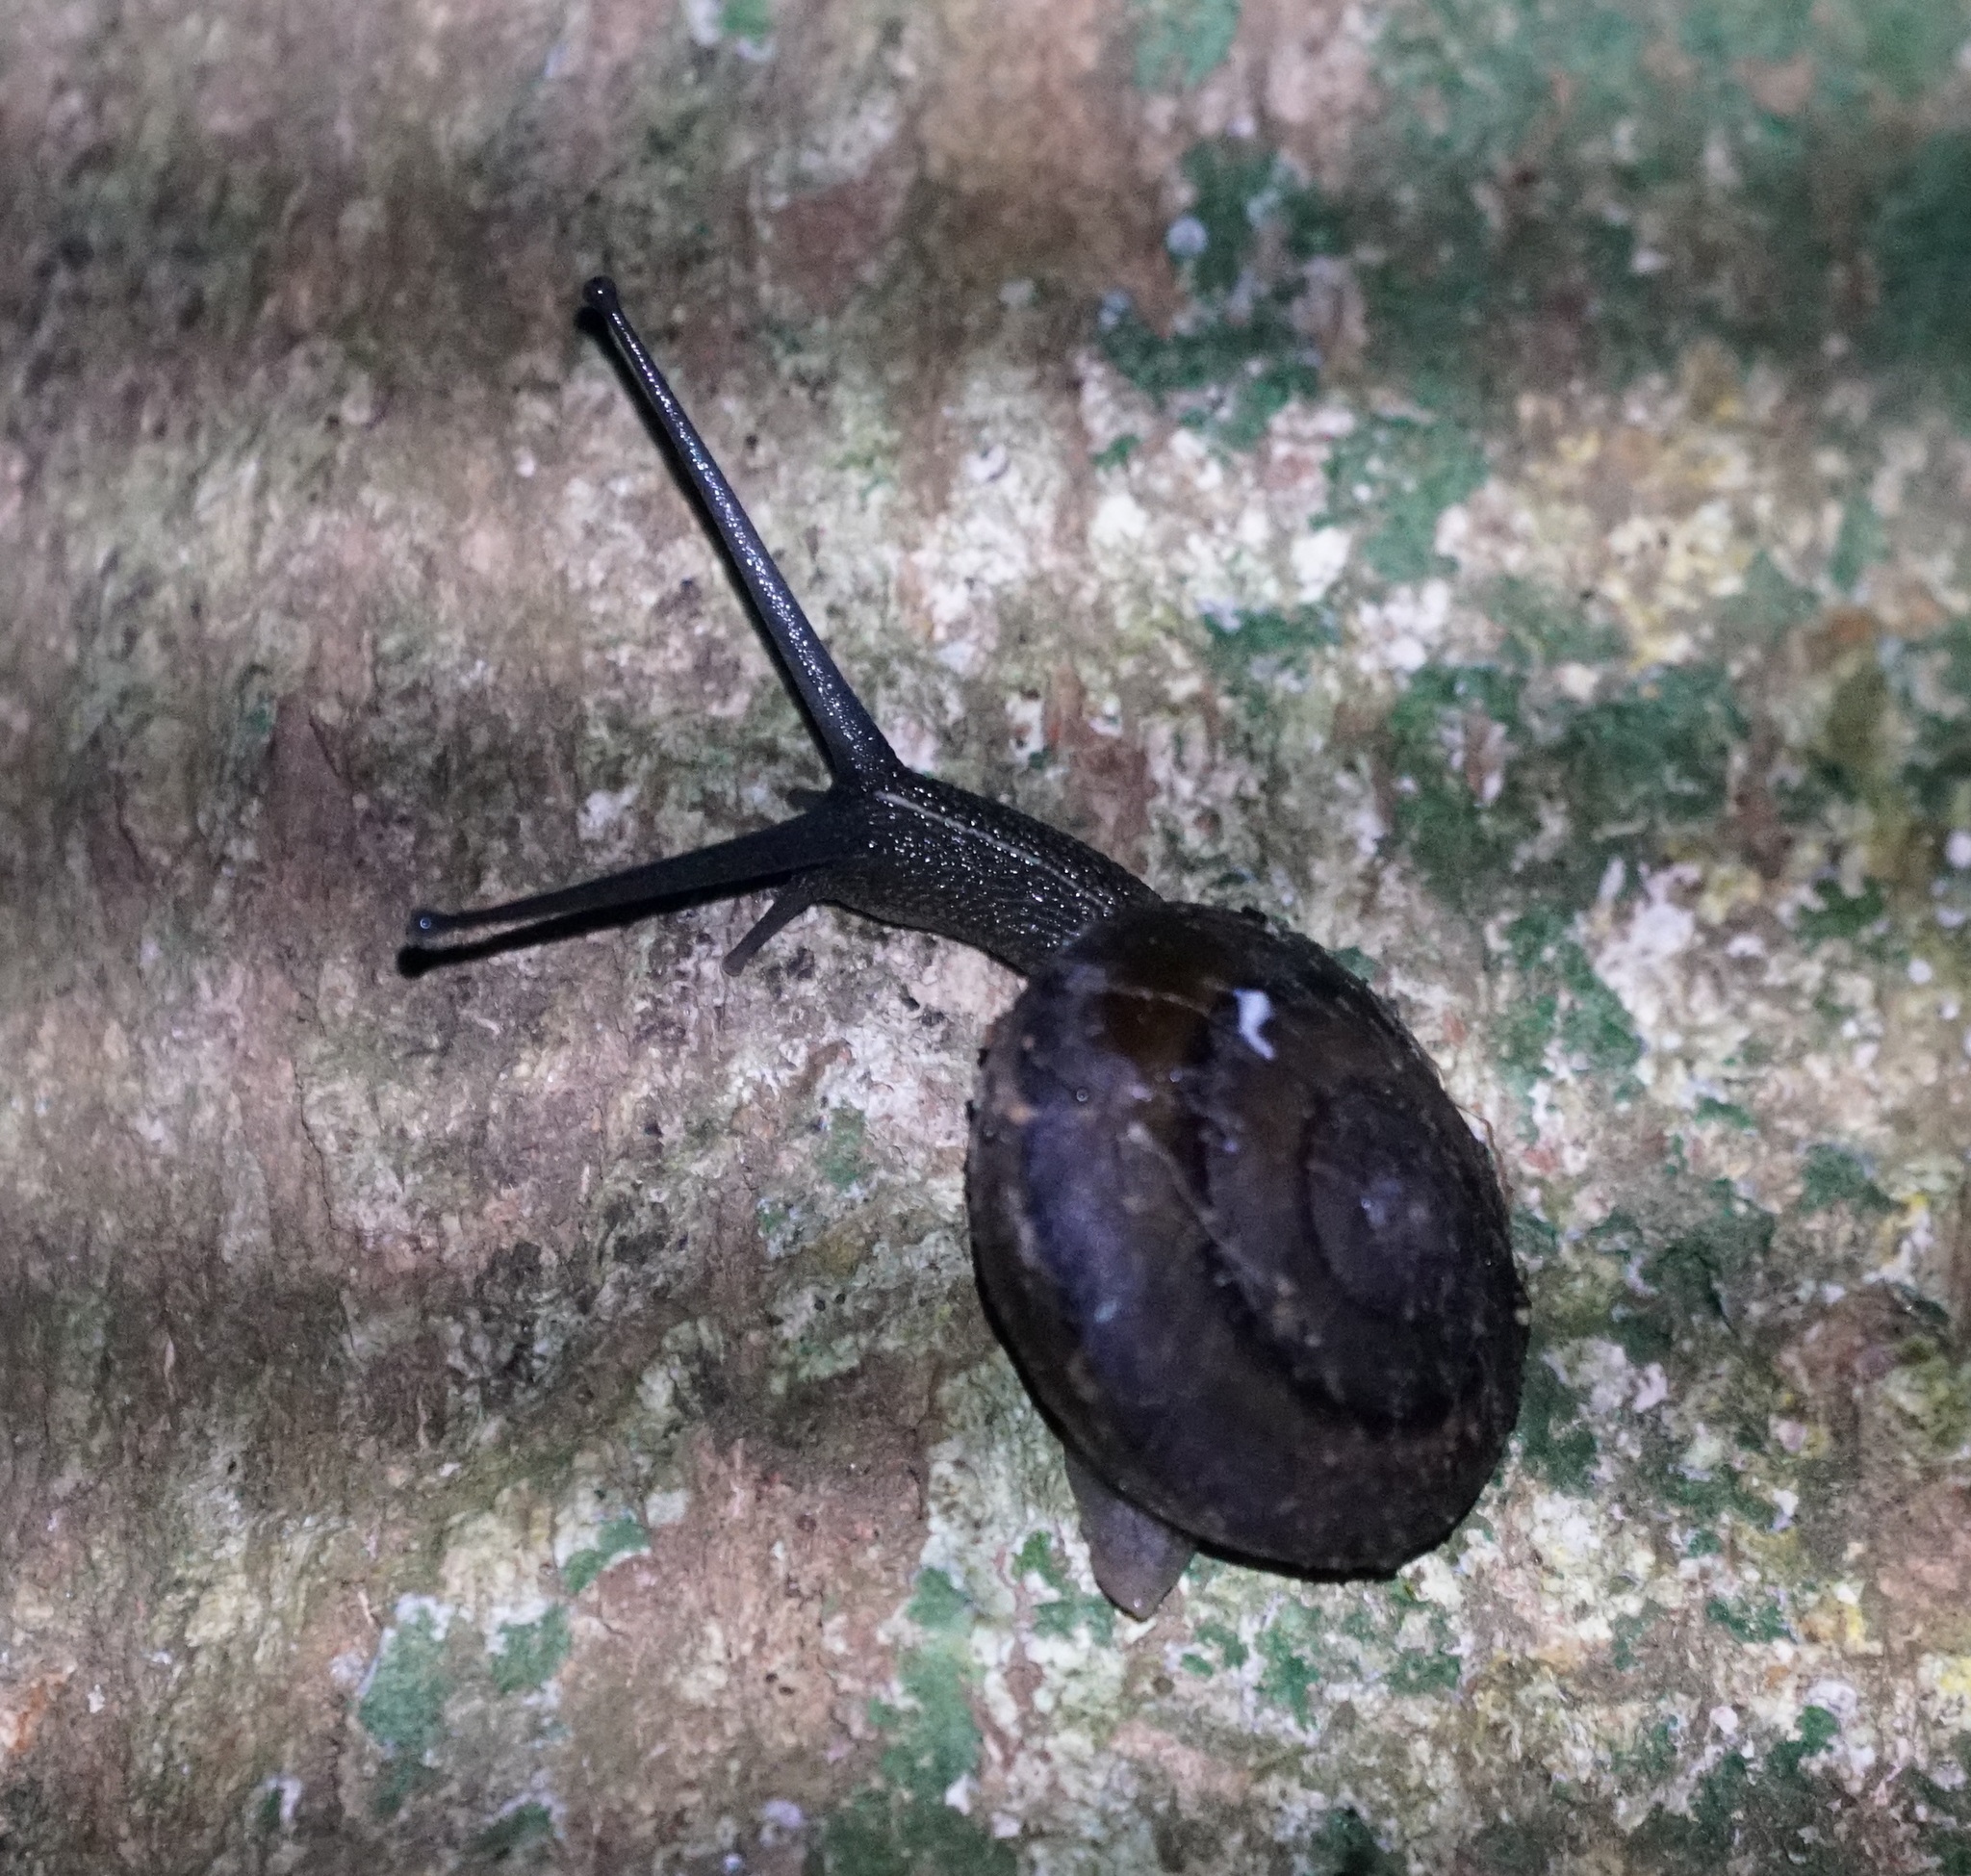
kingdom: Animalia
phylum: Mollusca
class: Gastropoda
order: Stylommatophora
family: Camaenidae
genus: Thersites
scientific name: Thersites novaehollandiae
